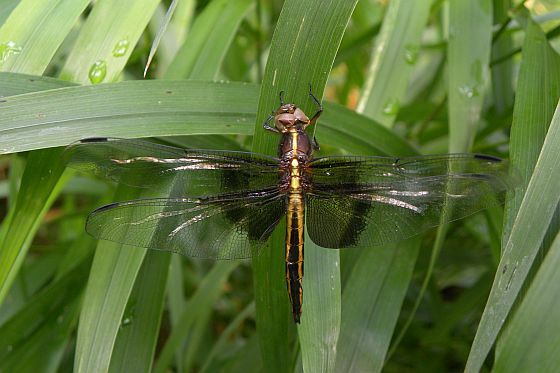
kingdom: Animalia
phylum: Arthropoda
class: Insecta
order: Odonata
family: Libellulidae
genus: Libellula
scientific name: Libellula luctuosa
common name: Widow skimmer
